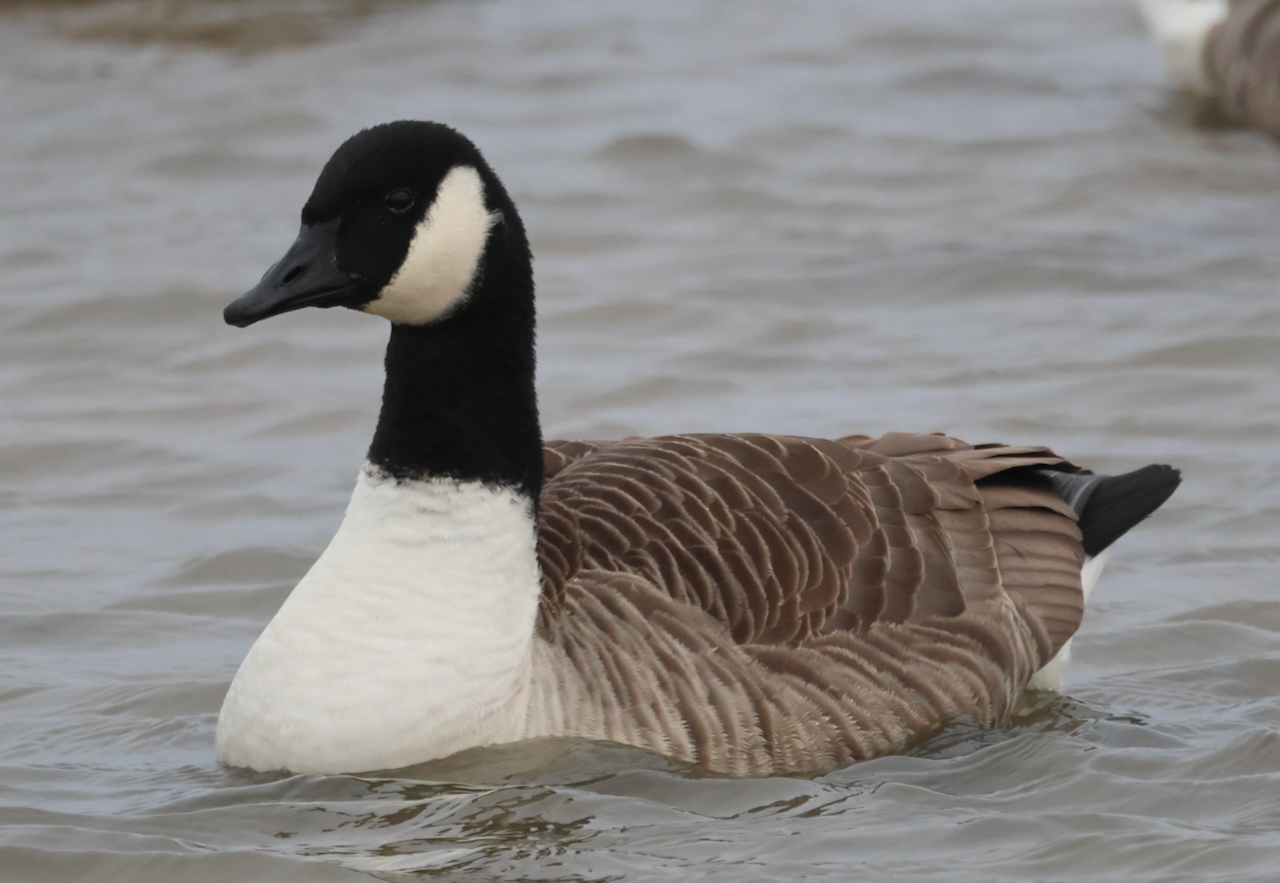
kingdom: Animalia
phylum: Chordata
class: Aves
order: Anseriformes
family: Anatidae
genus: Branta
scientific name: Branta canadensis
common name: Canada goose
